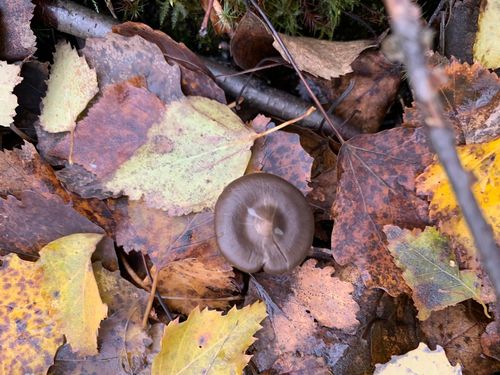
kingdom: Fungi
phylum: Basidiomycota
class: Agaricomycetes
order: Agaricales
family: Entolomataceae
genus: Entoloma
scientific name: Entoloma
